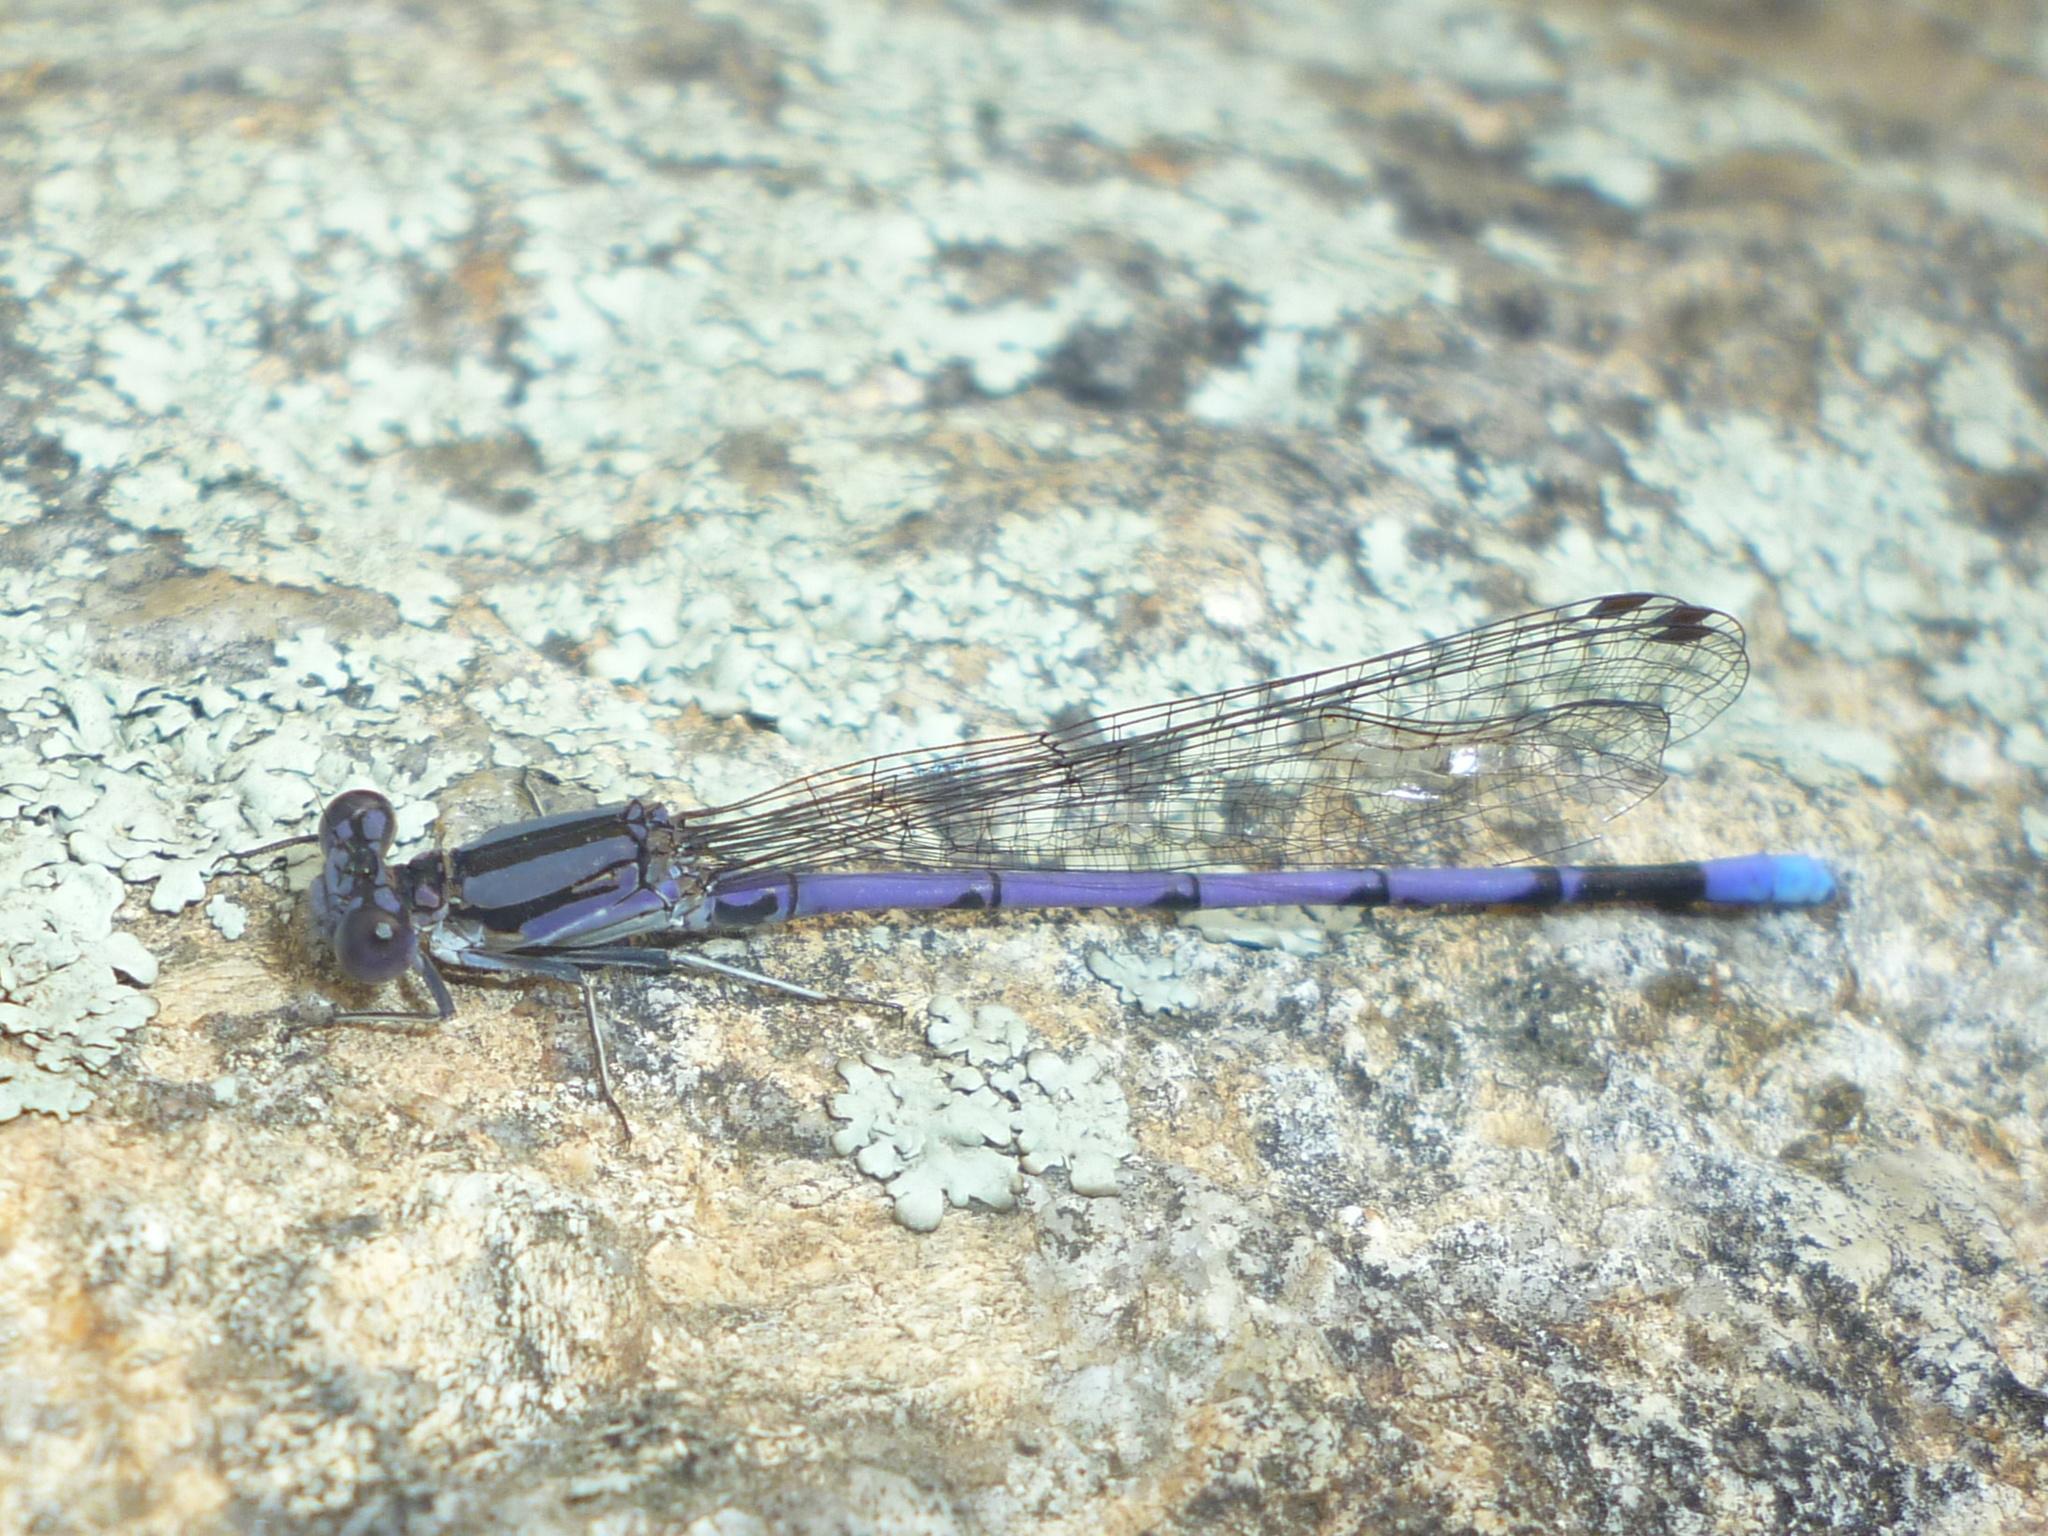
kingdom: Animalia
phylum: Arthropoda
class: Insecta
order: Odonata
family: Coenagrionidae
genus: Argia
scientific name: Argia fumipennis
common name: Variable dancer
